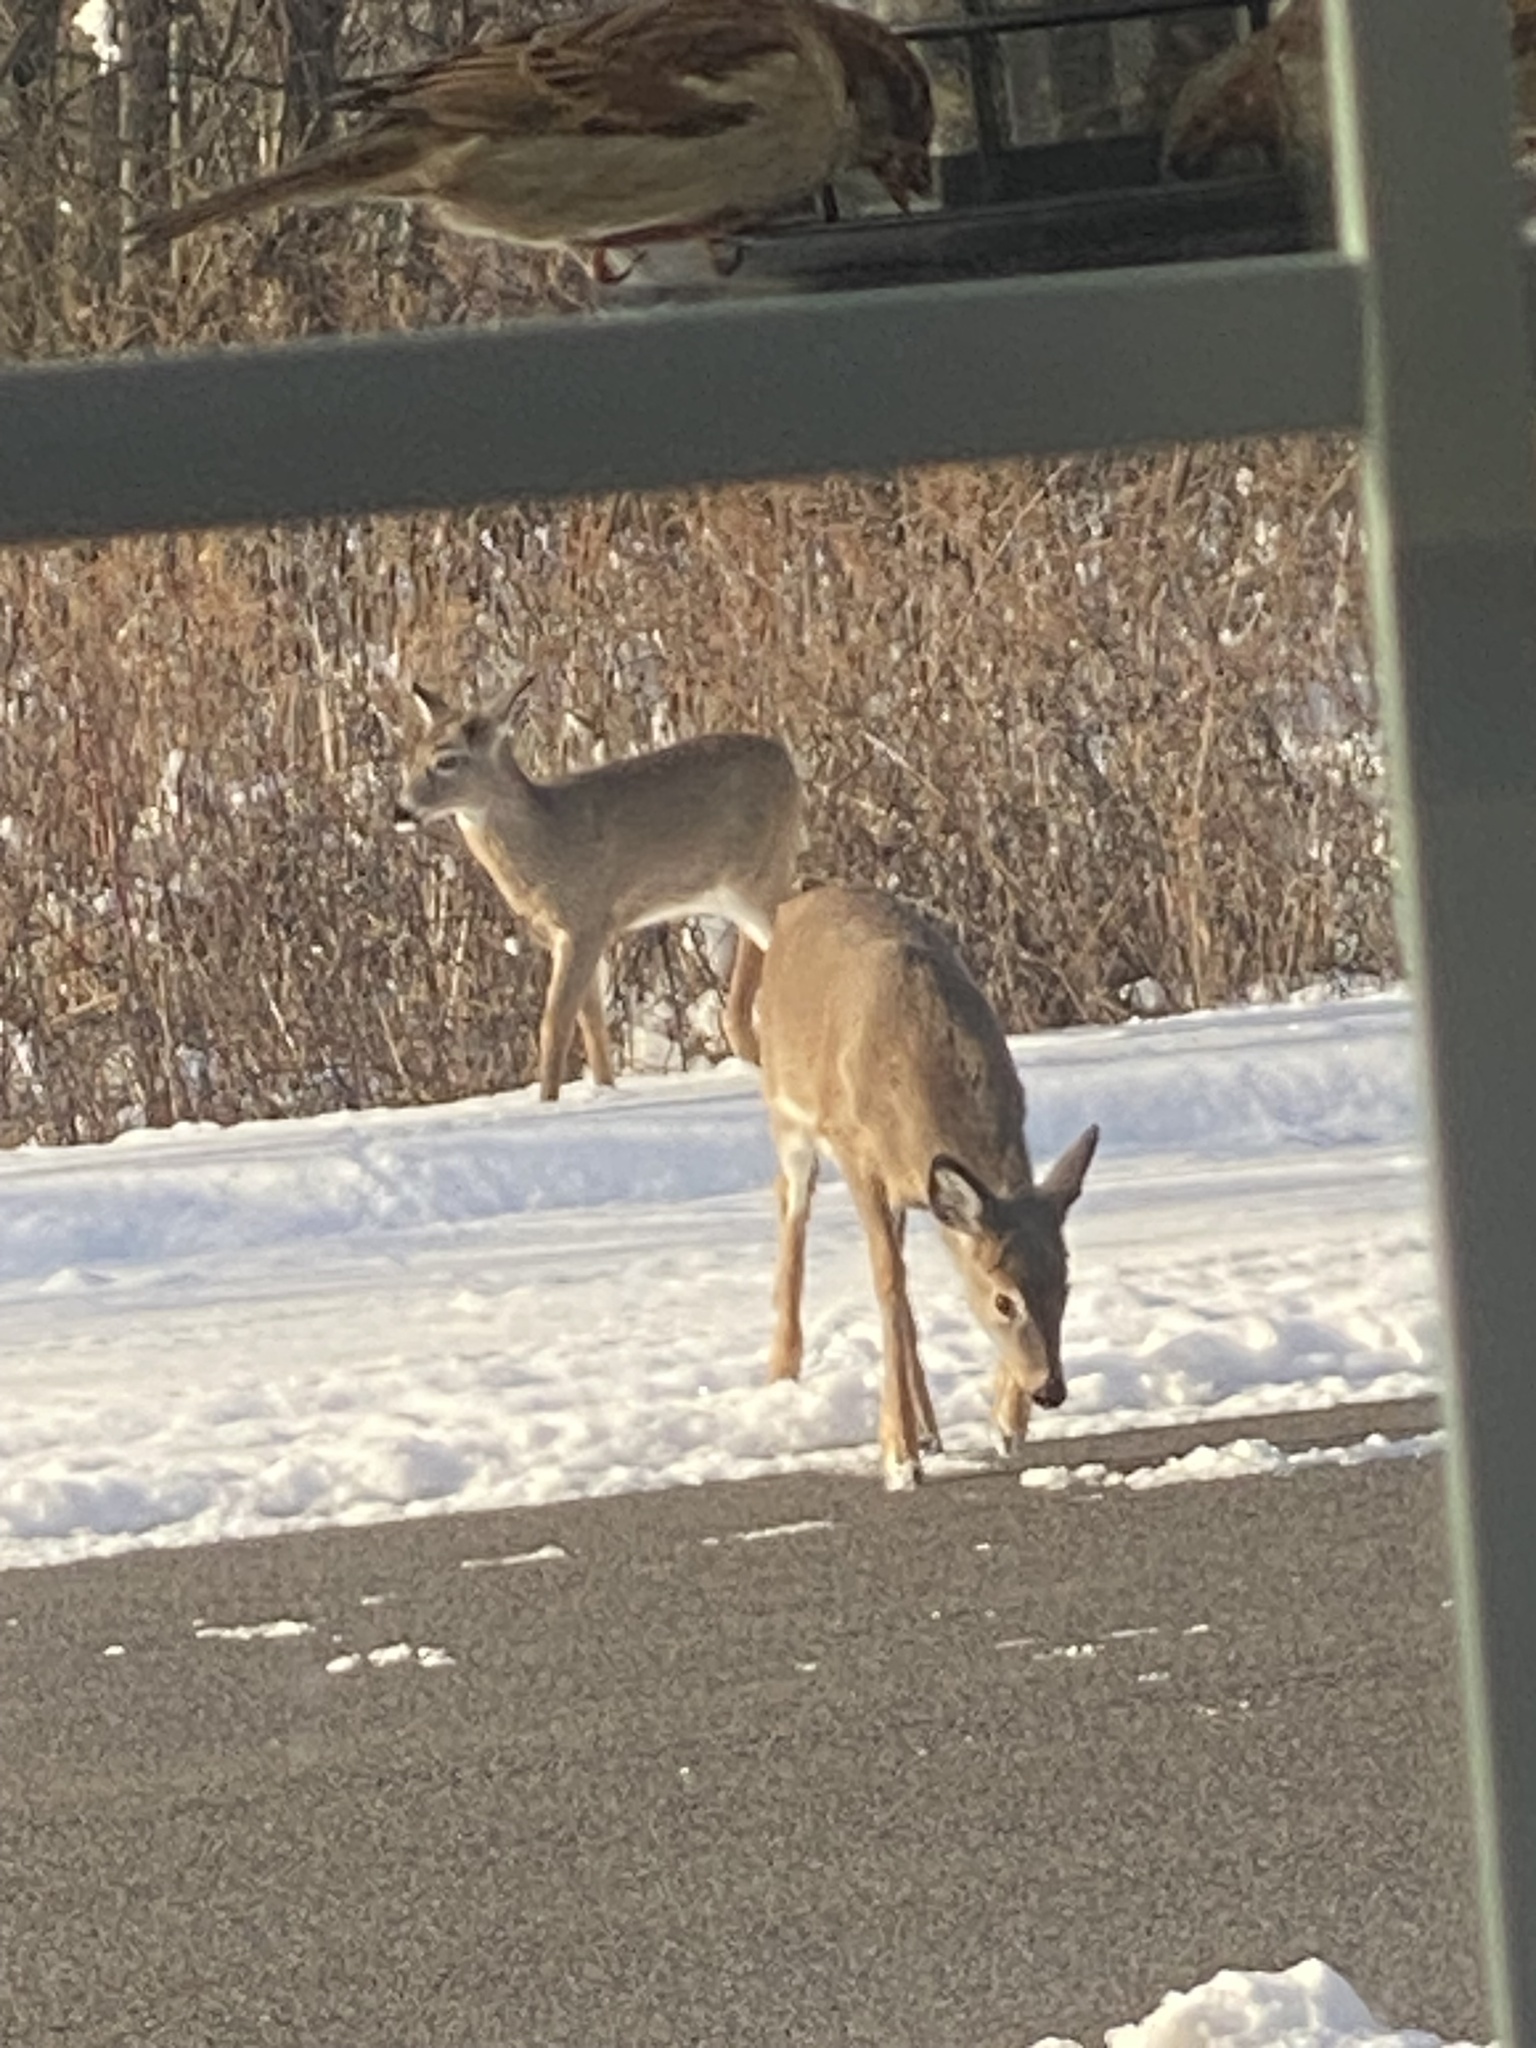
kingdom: Animalia
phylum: Chordata
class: Mammalia
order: Artiodactyla
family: Cervidae
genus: Odocoileus
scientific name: Odocoileus virginianus
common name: White-tailed deer
